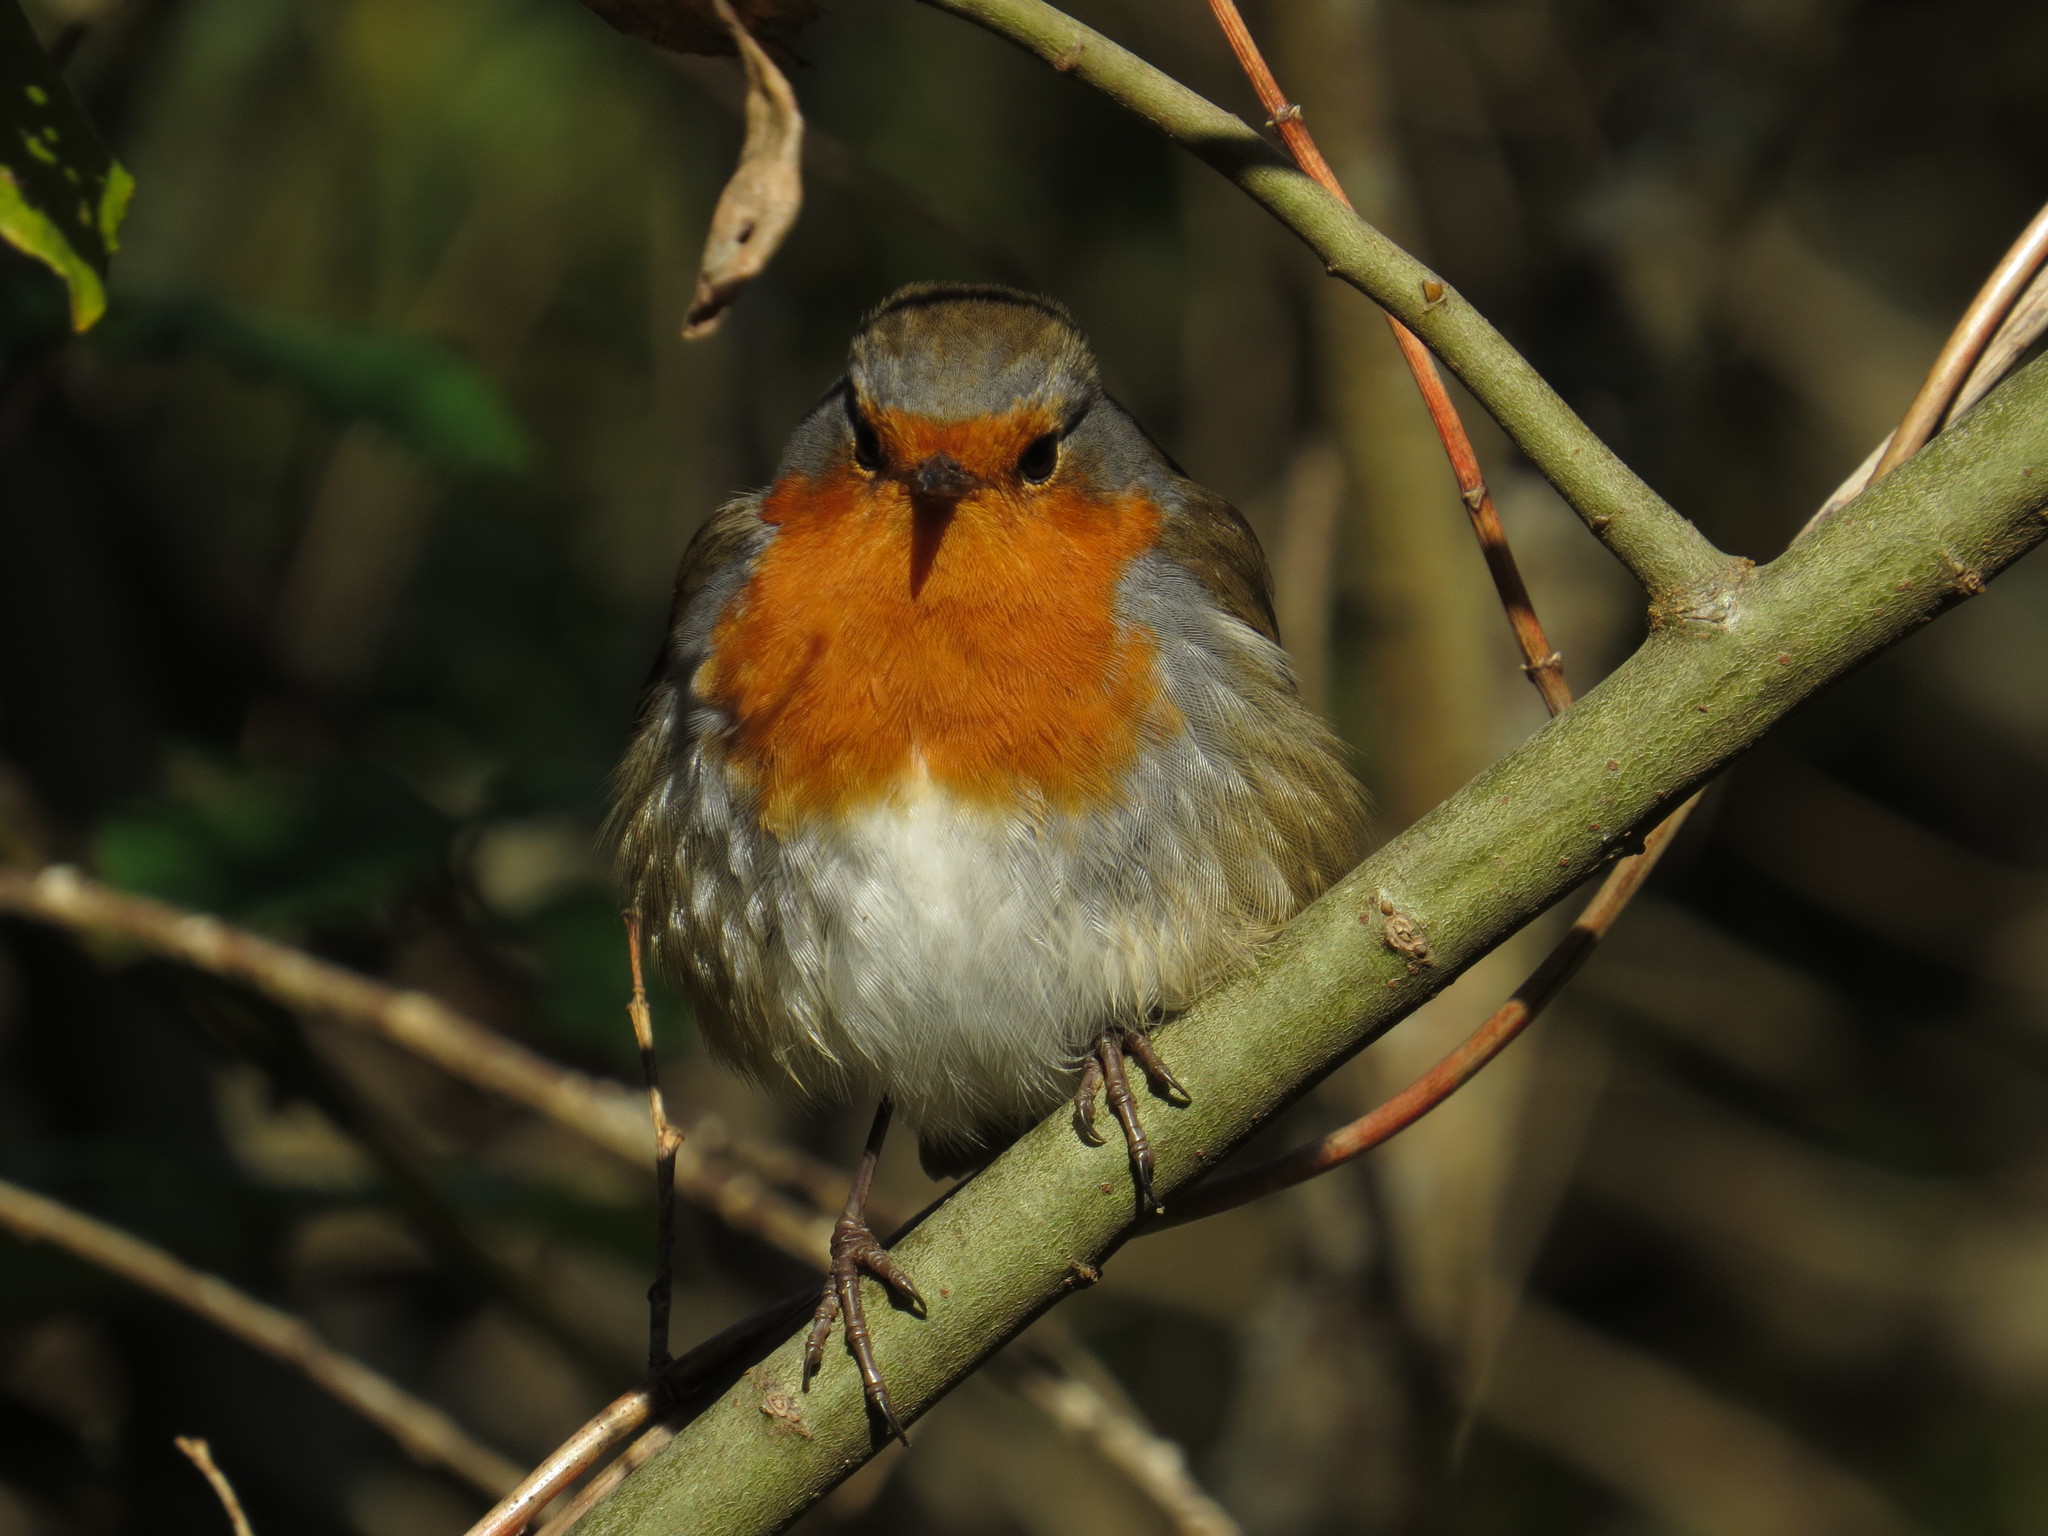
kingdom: Animalia
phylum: Chordata
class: Aves
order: Passeriformes
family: Muscicapidae
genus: Erithacus
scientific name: Erithacus rubecula
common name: European robin
